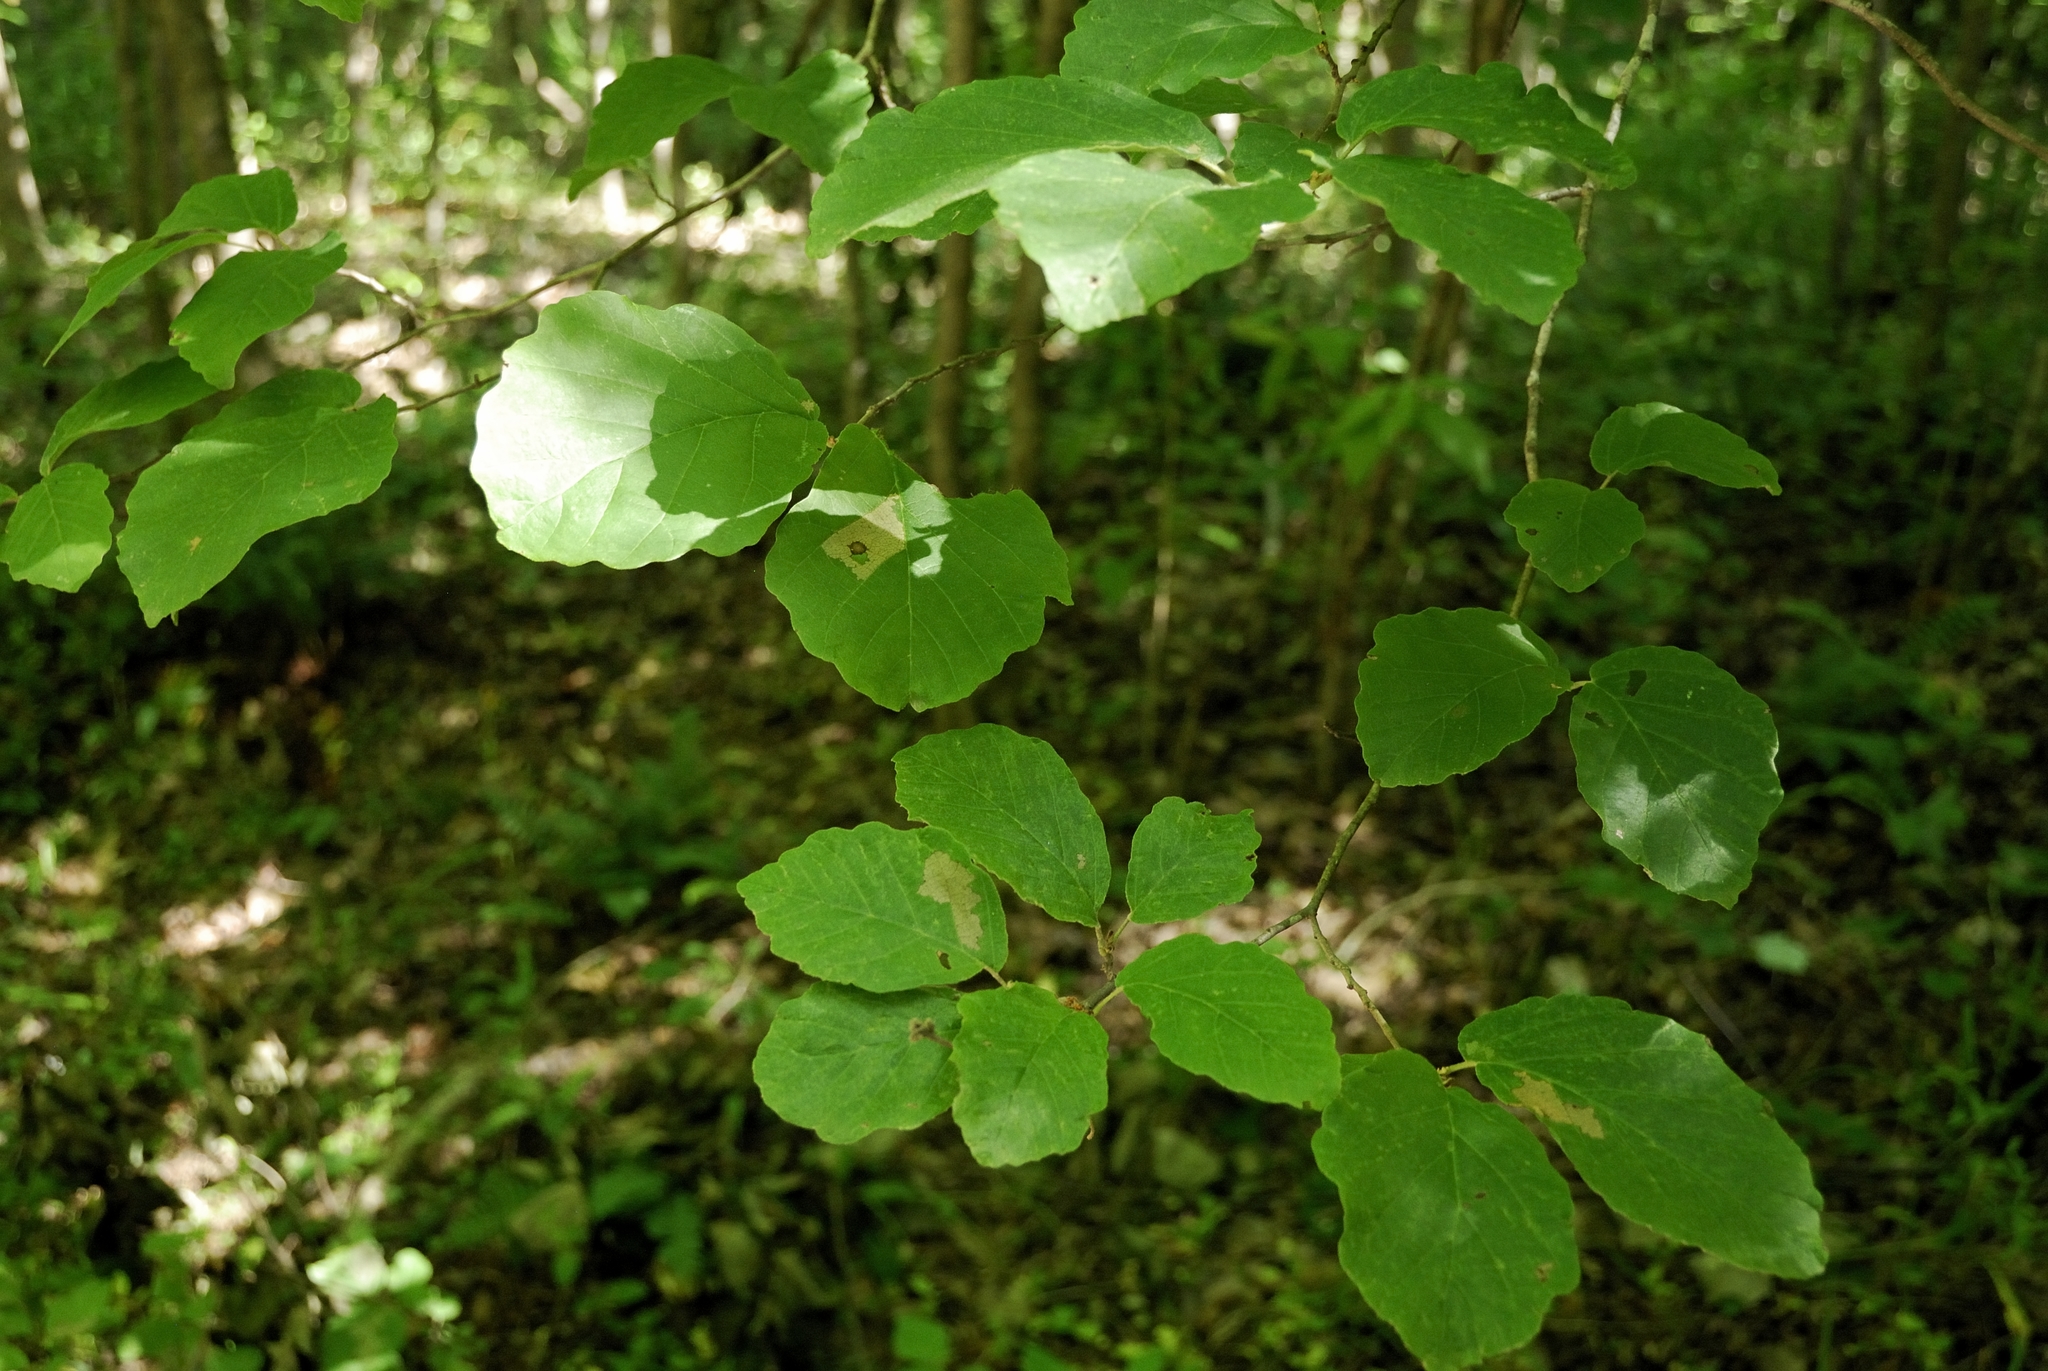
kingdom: Plantae
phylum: Tracheophyta
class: Magnoliopsida
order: Saxifragales
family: Hamamelidaceae
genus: Hamamelis
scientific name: Hamamelis virginiana
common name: Witch-hazel
